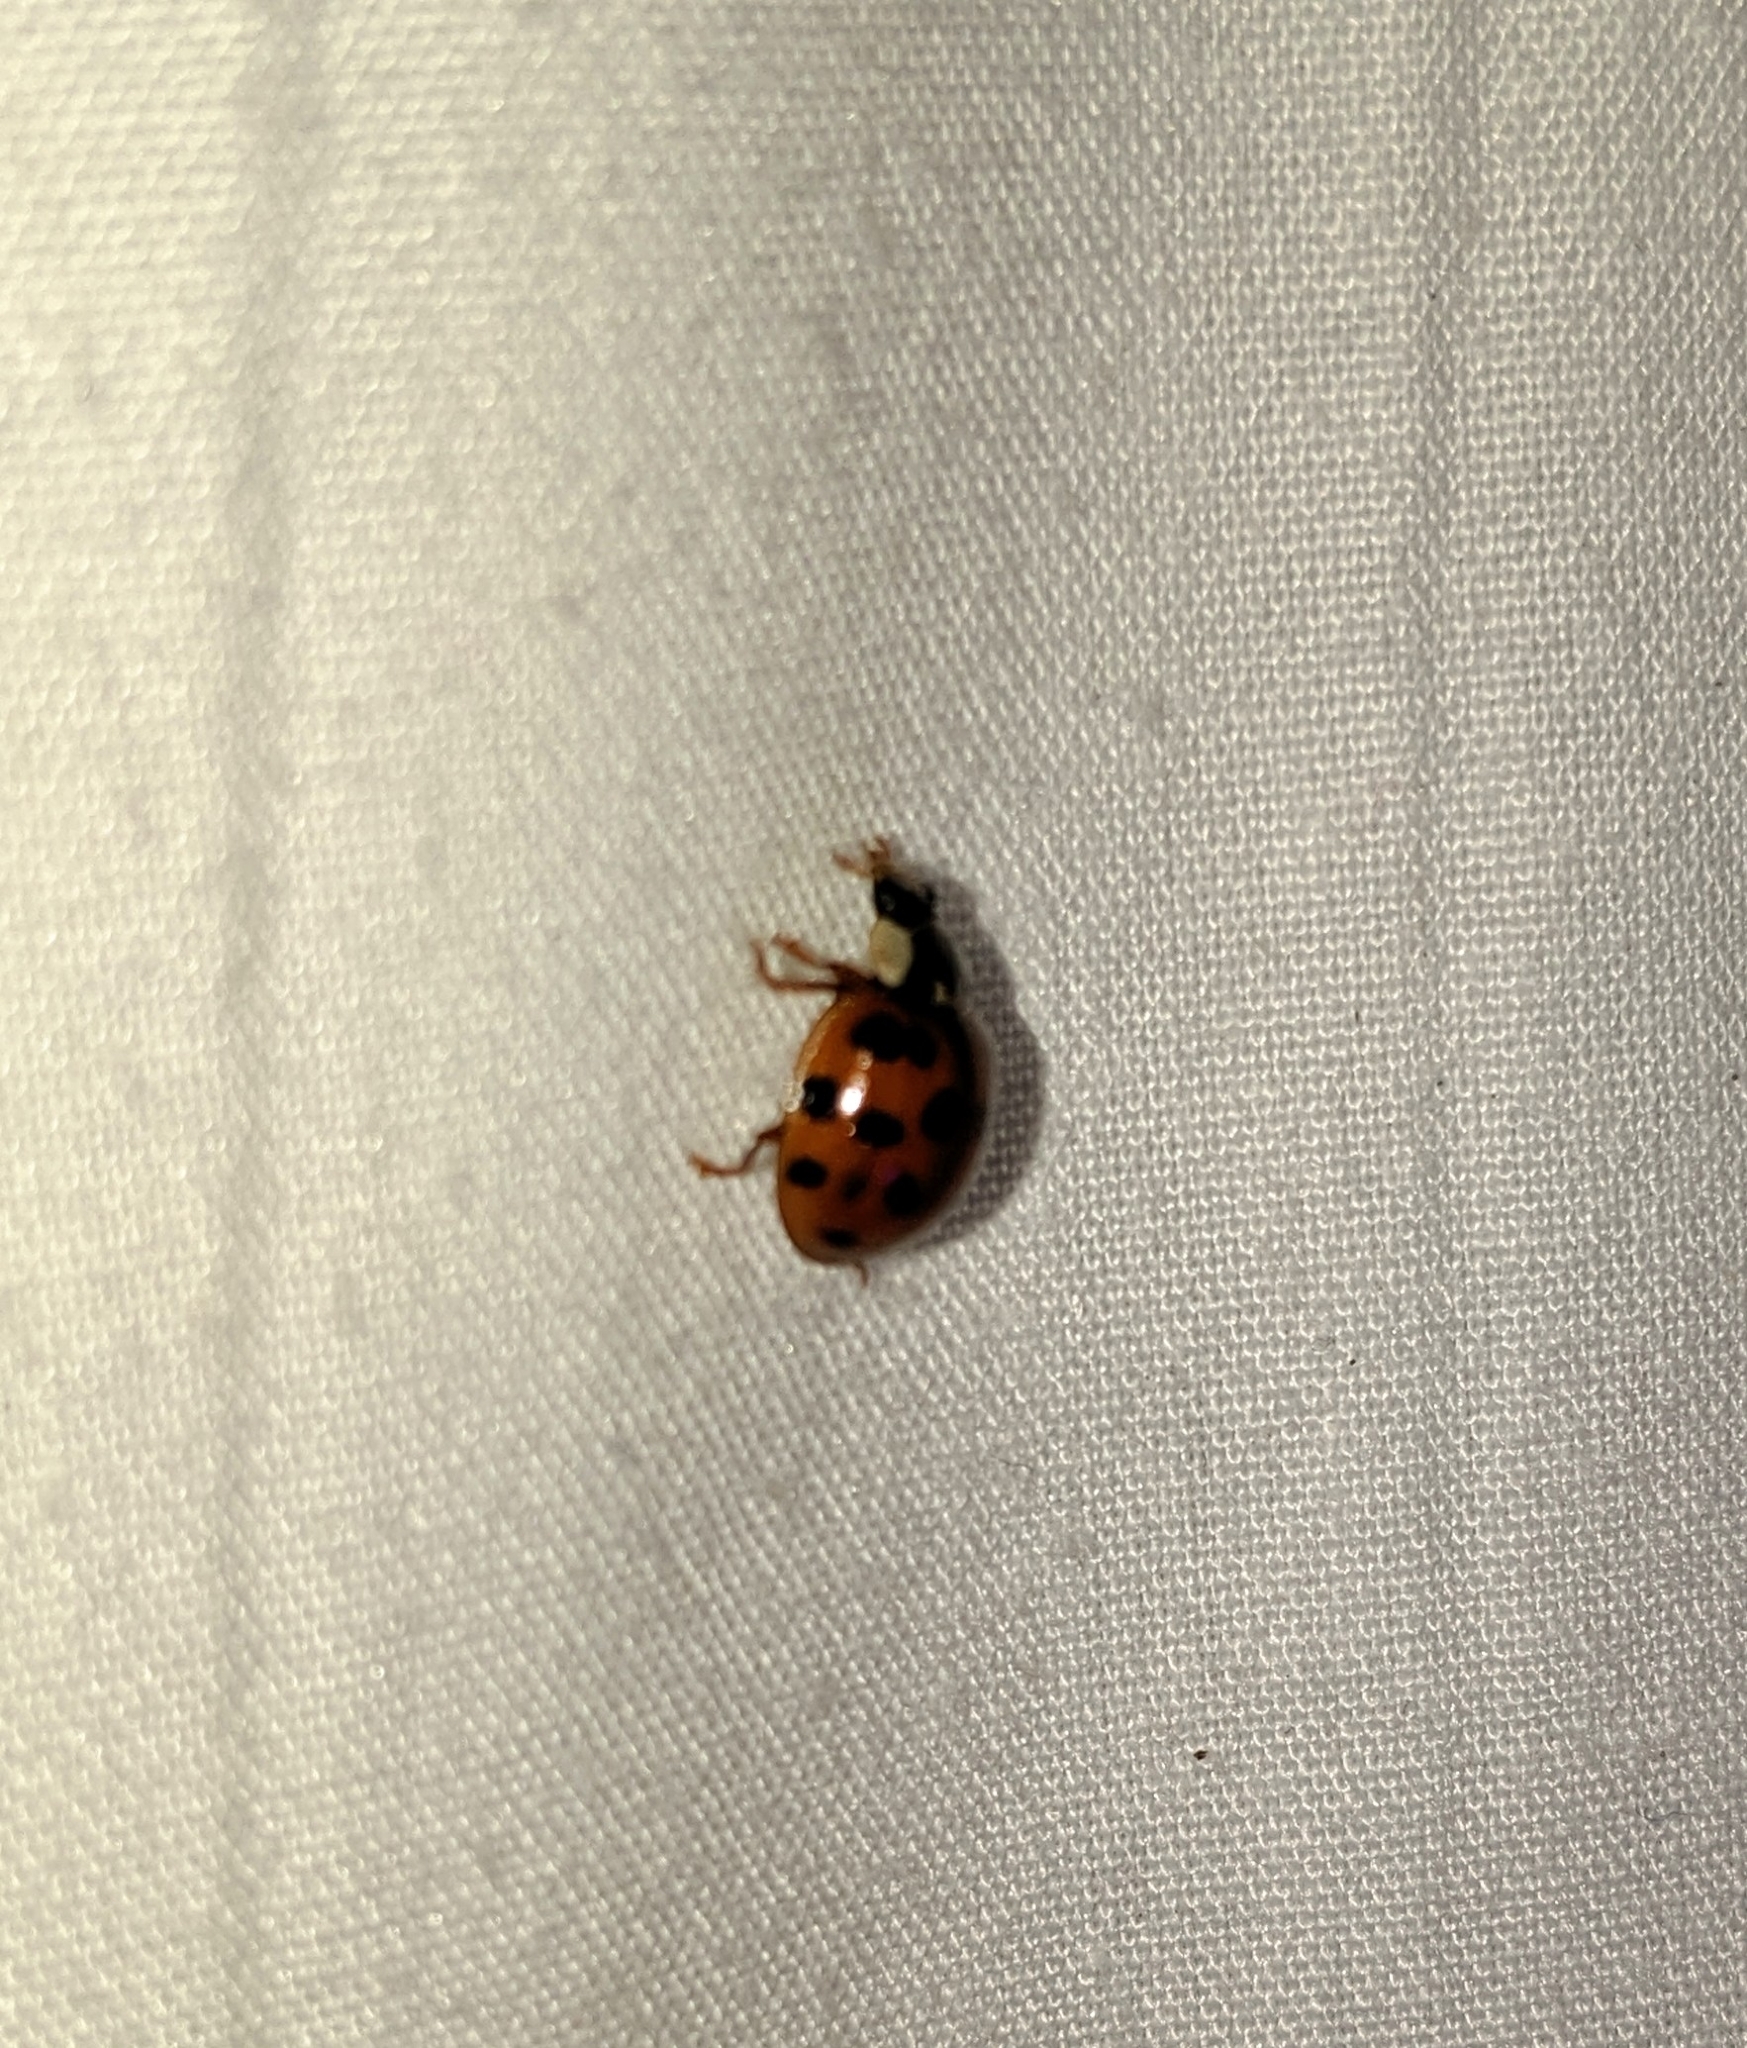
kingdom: Animalia
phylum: Arthropoda
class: Insecta
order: Coleoptera
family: Coccinellidae
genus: Harmonia
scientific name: Harmonia axyridis
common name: Harlequin ladybird
